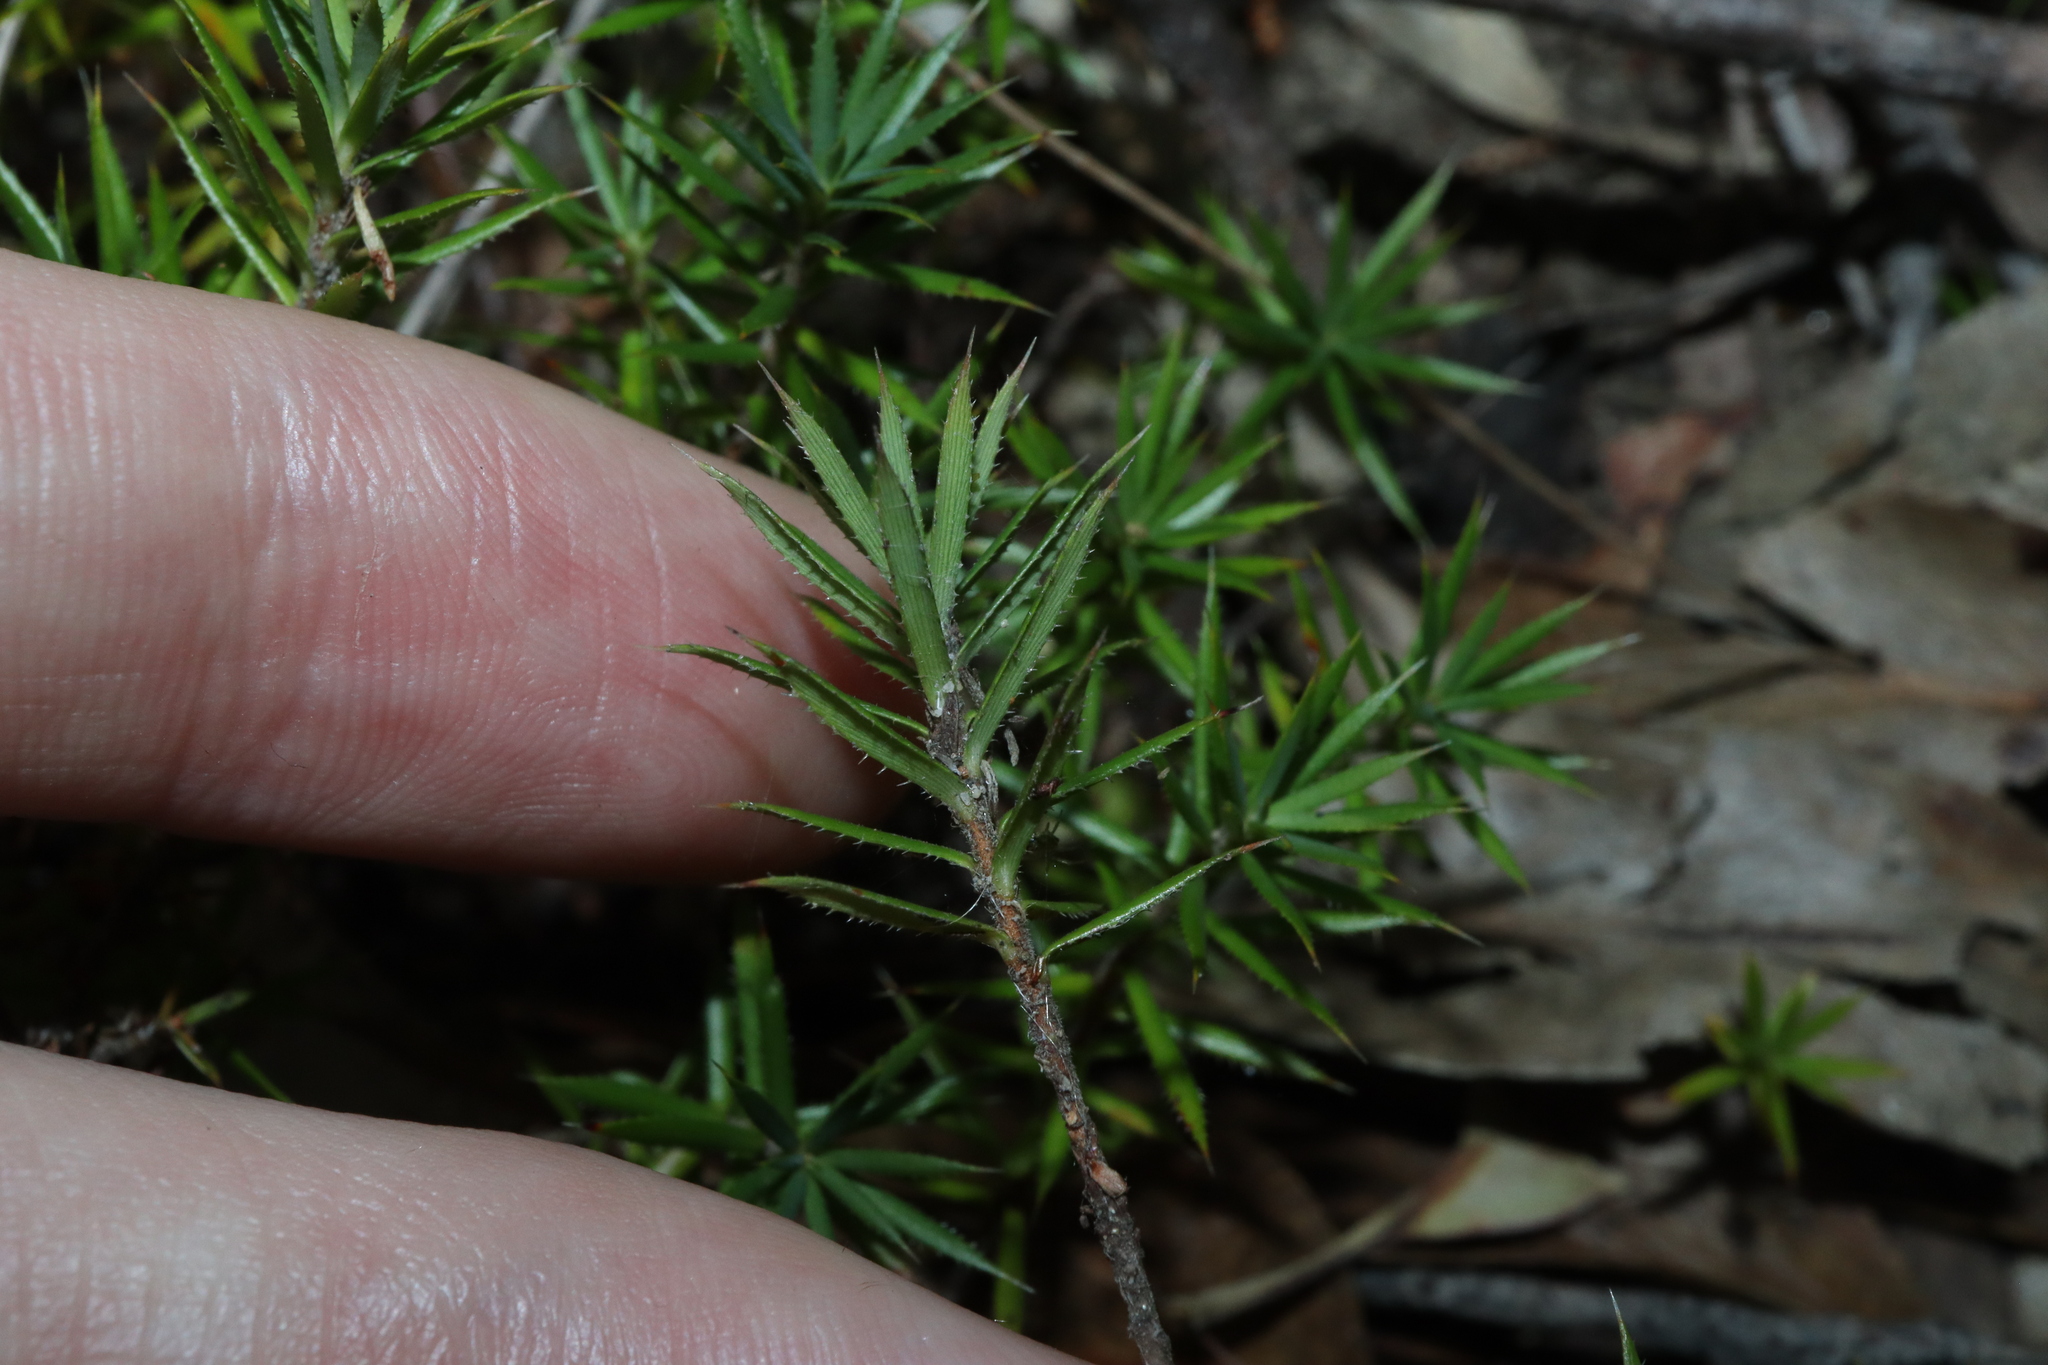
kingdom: Plantae
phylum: Tracheophyta
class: Magnoliopsida
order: Ericales
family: Ericaceae
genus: Styphelia
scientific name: Styphelia humifusa
